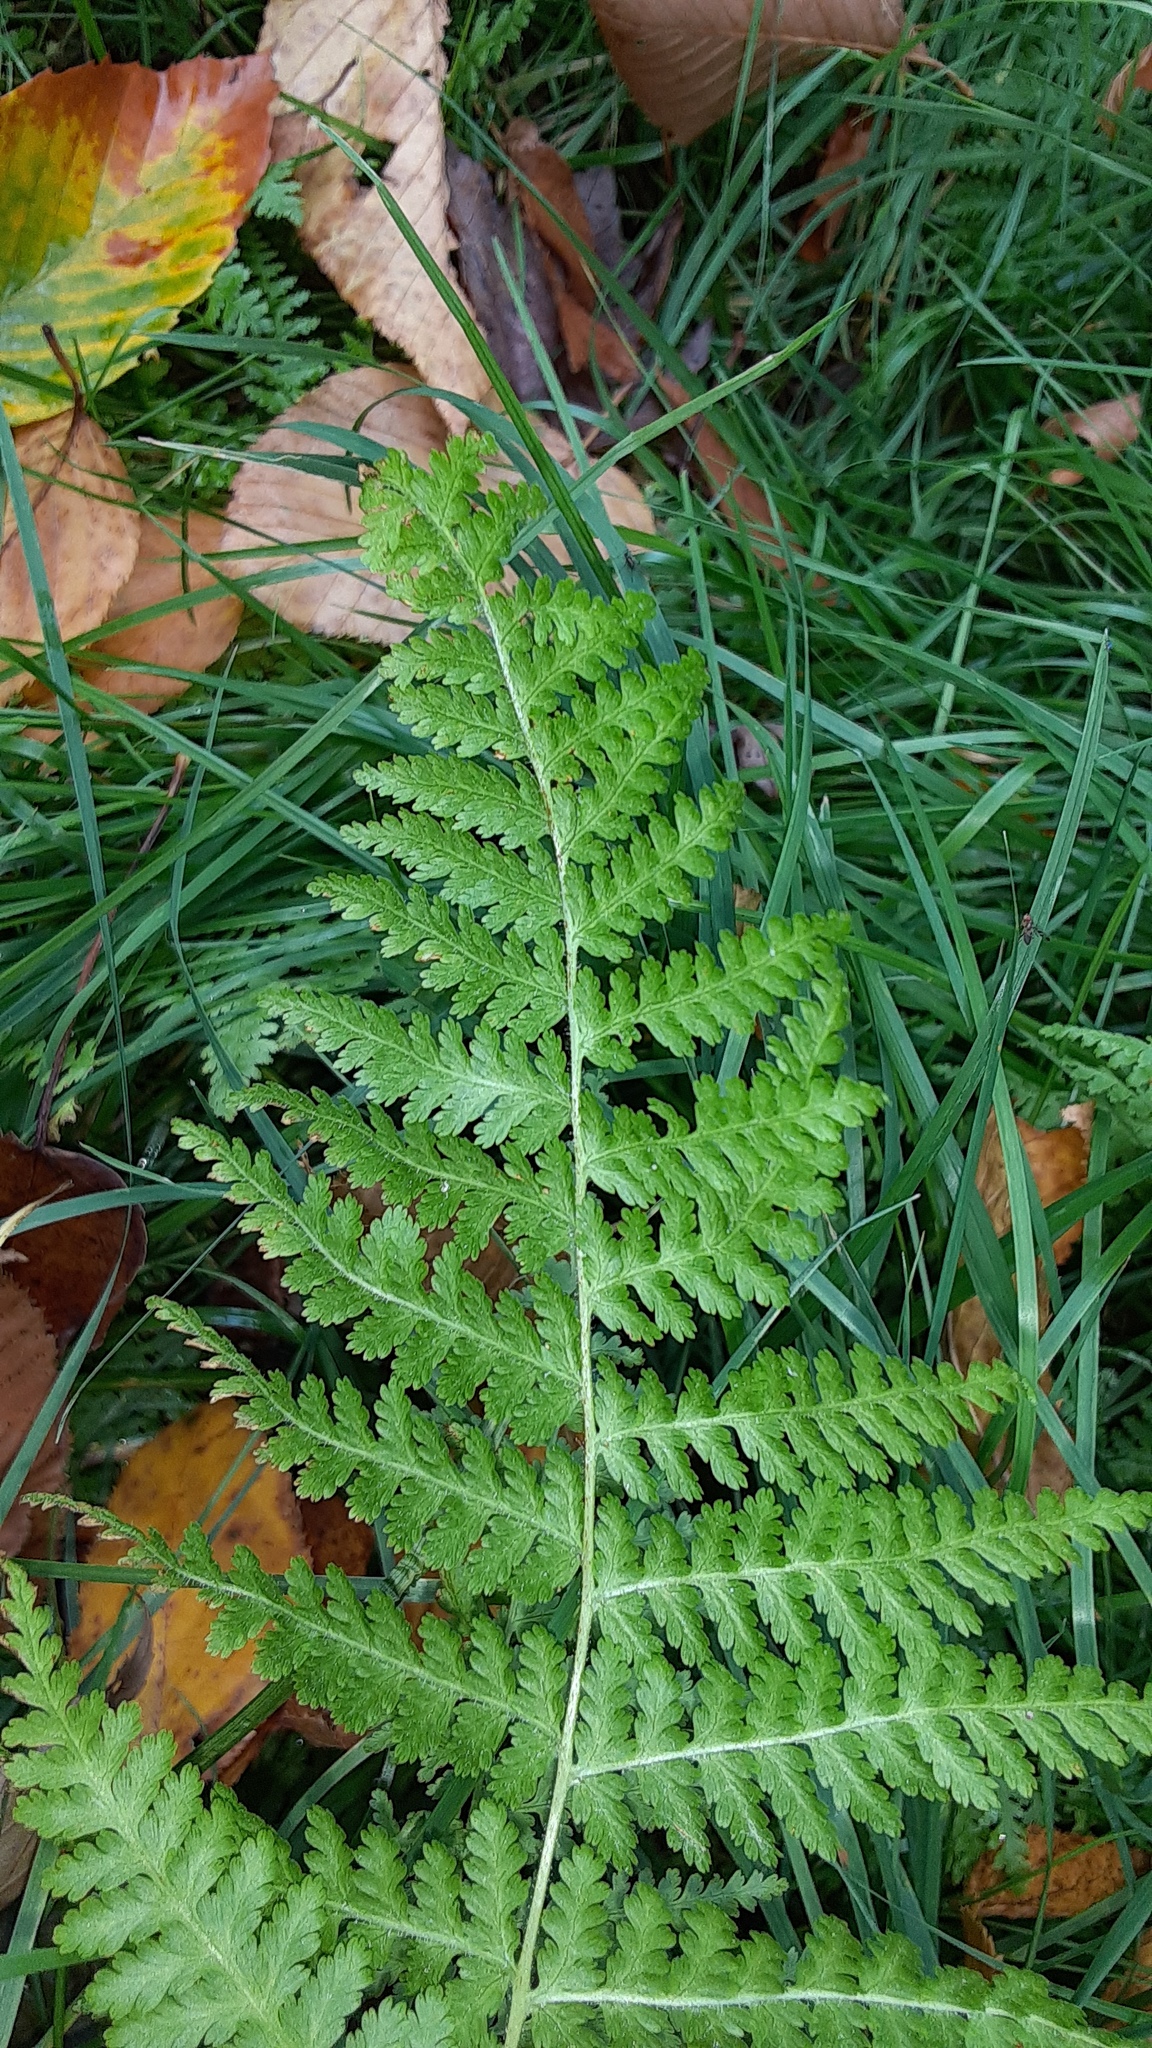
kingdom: Plantae
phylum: Tracheophyta
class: Polypodiopsida
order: Polypodiales
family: Dennstaedtiaceae
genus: Sitobolium
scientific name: Sitobolium punctilobum
